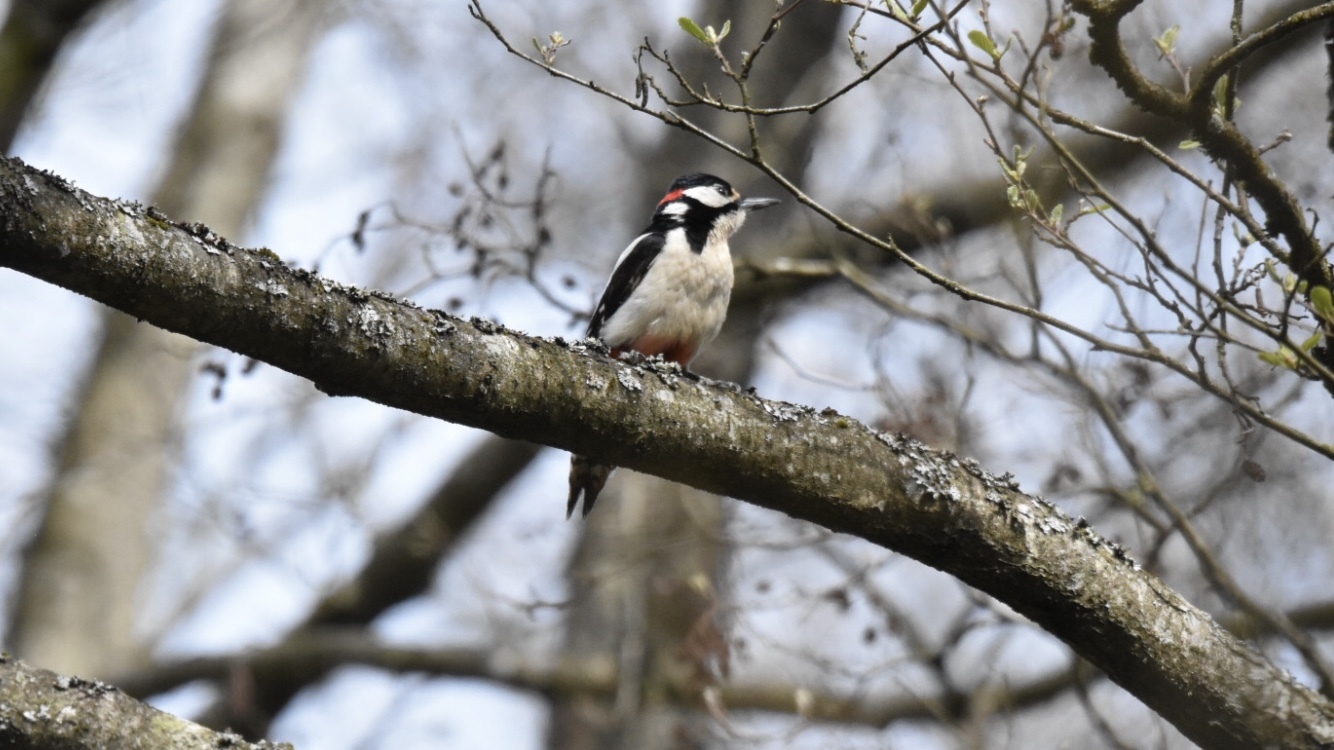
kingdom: Animalia
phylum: Chordata
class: Aves
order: Piciformes
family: Picidae
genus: Dendrocopos
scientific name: Dendrocopos major
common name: Great spotted woodpecker
